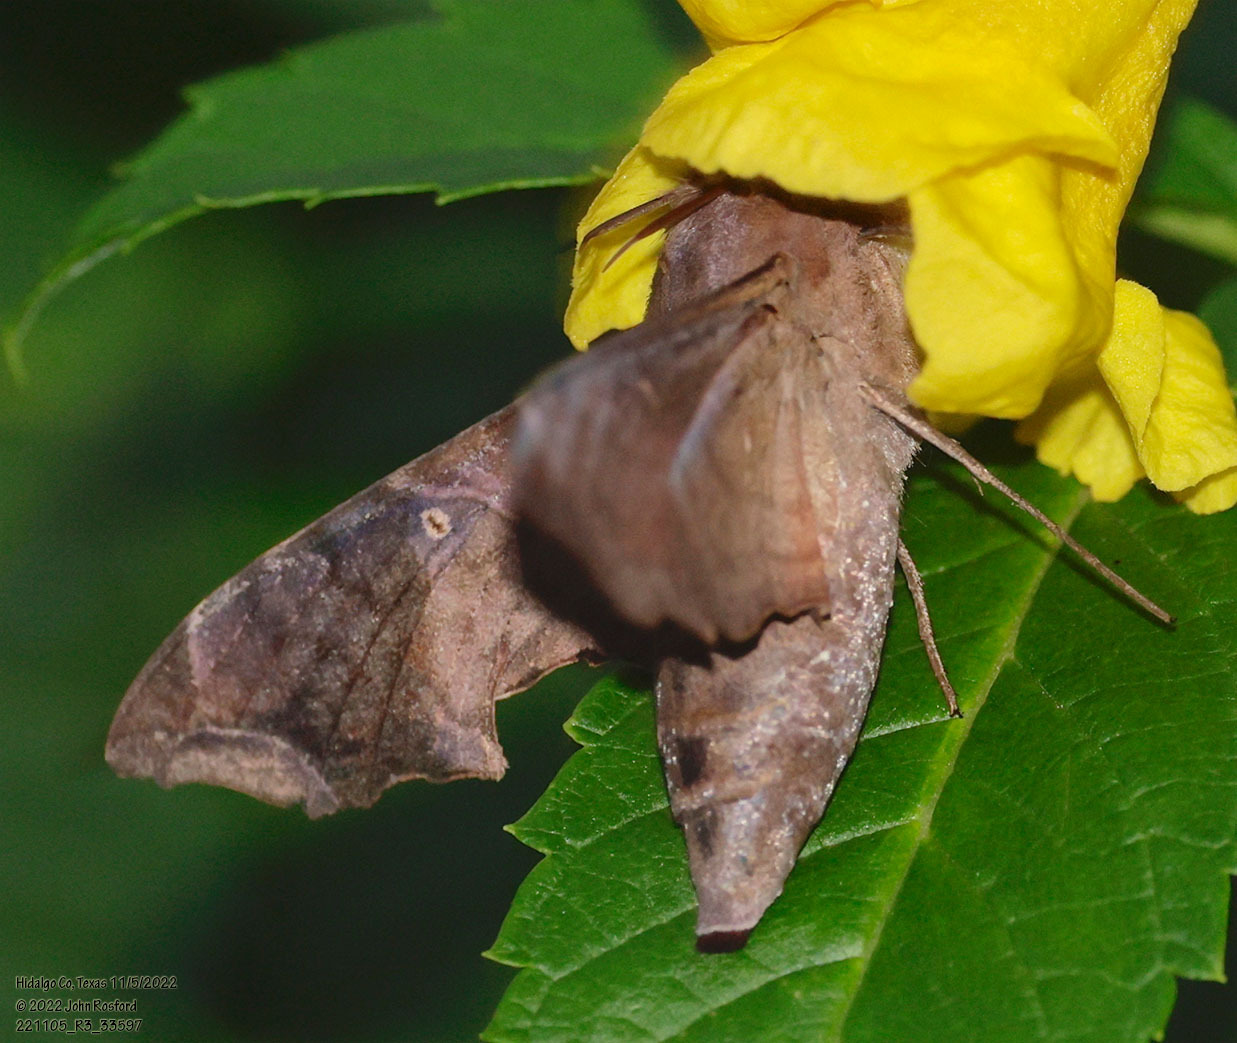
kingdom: Animalia
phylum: Arthropoda
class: Insecta
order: Lepidoptera
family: Sphingidae
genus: Enyo
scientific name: Enyo lugubris
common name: Mournful sphinx
